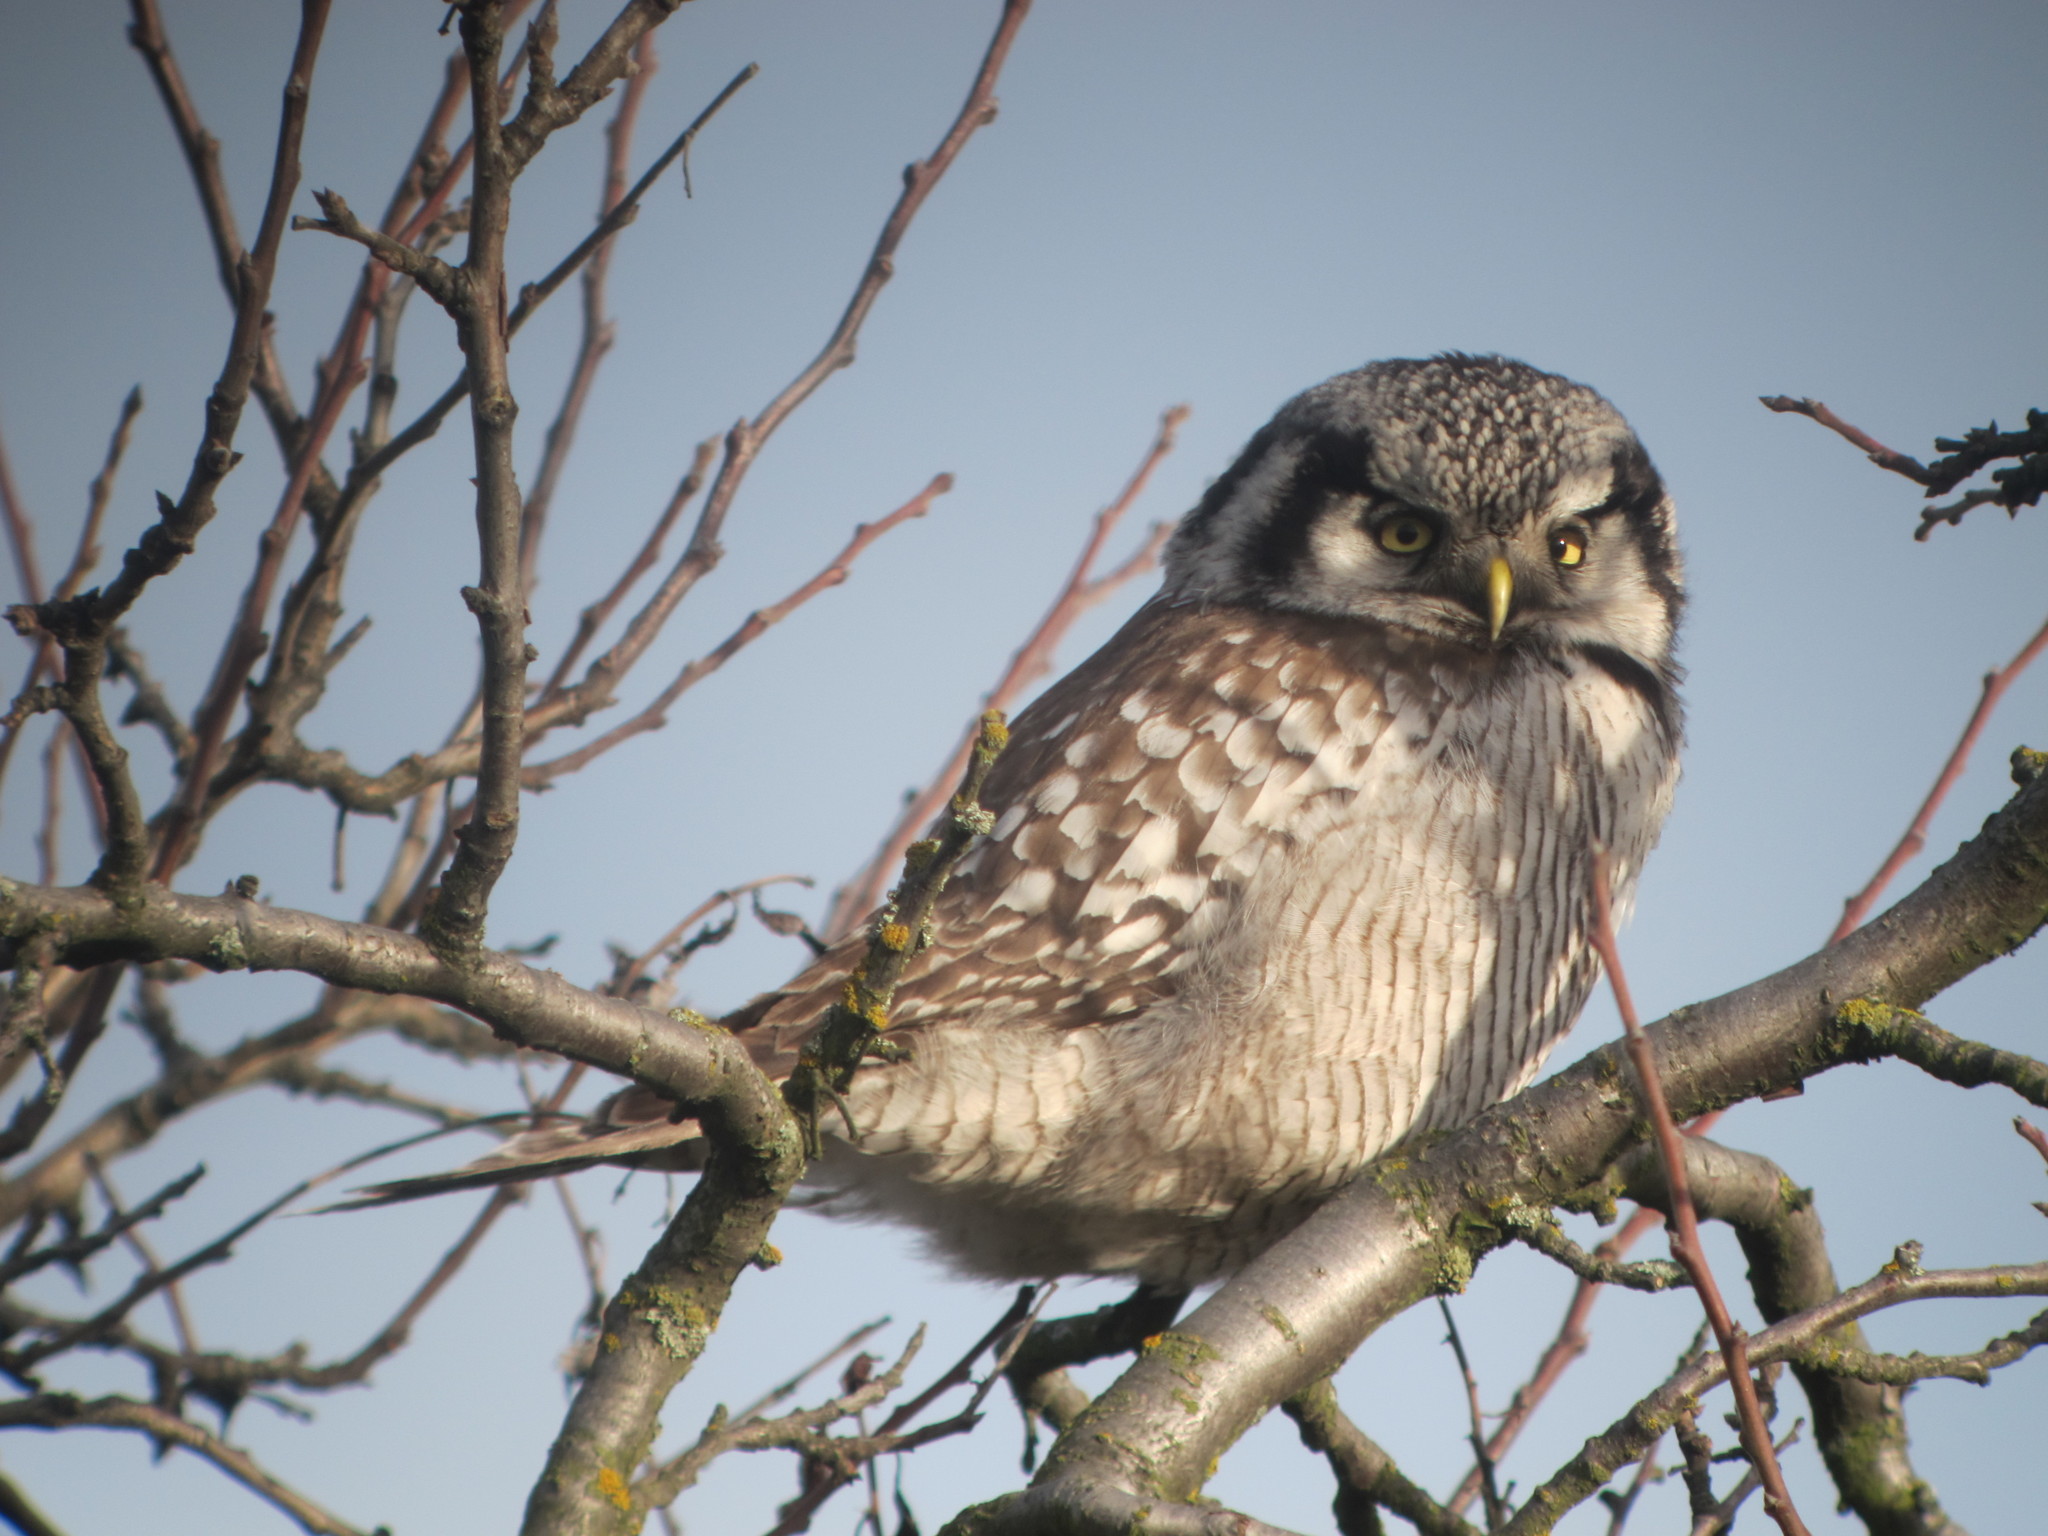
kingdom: Animalia
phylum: Chordata
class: Aves
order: Strigiformes
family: Strigidae
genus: Surnia
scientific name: Surnia ulula
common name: Northern hawk-owl
